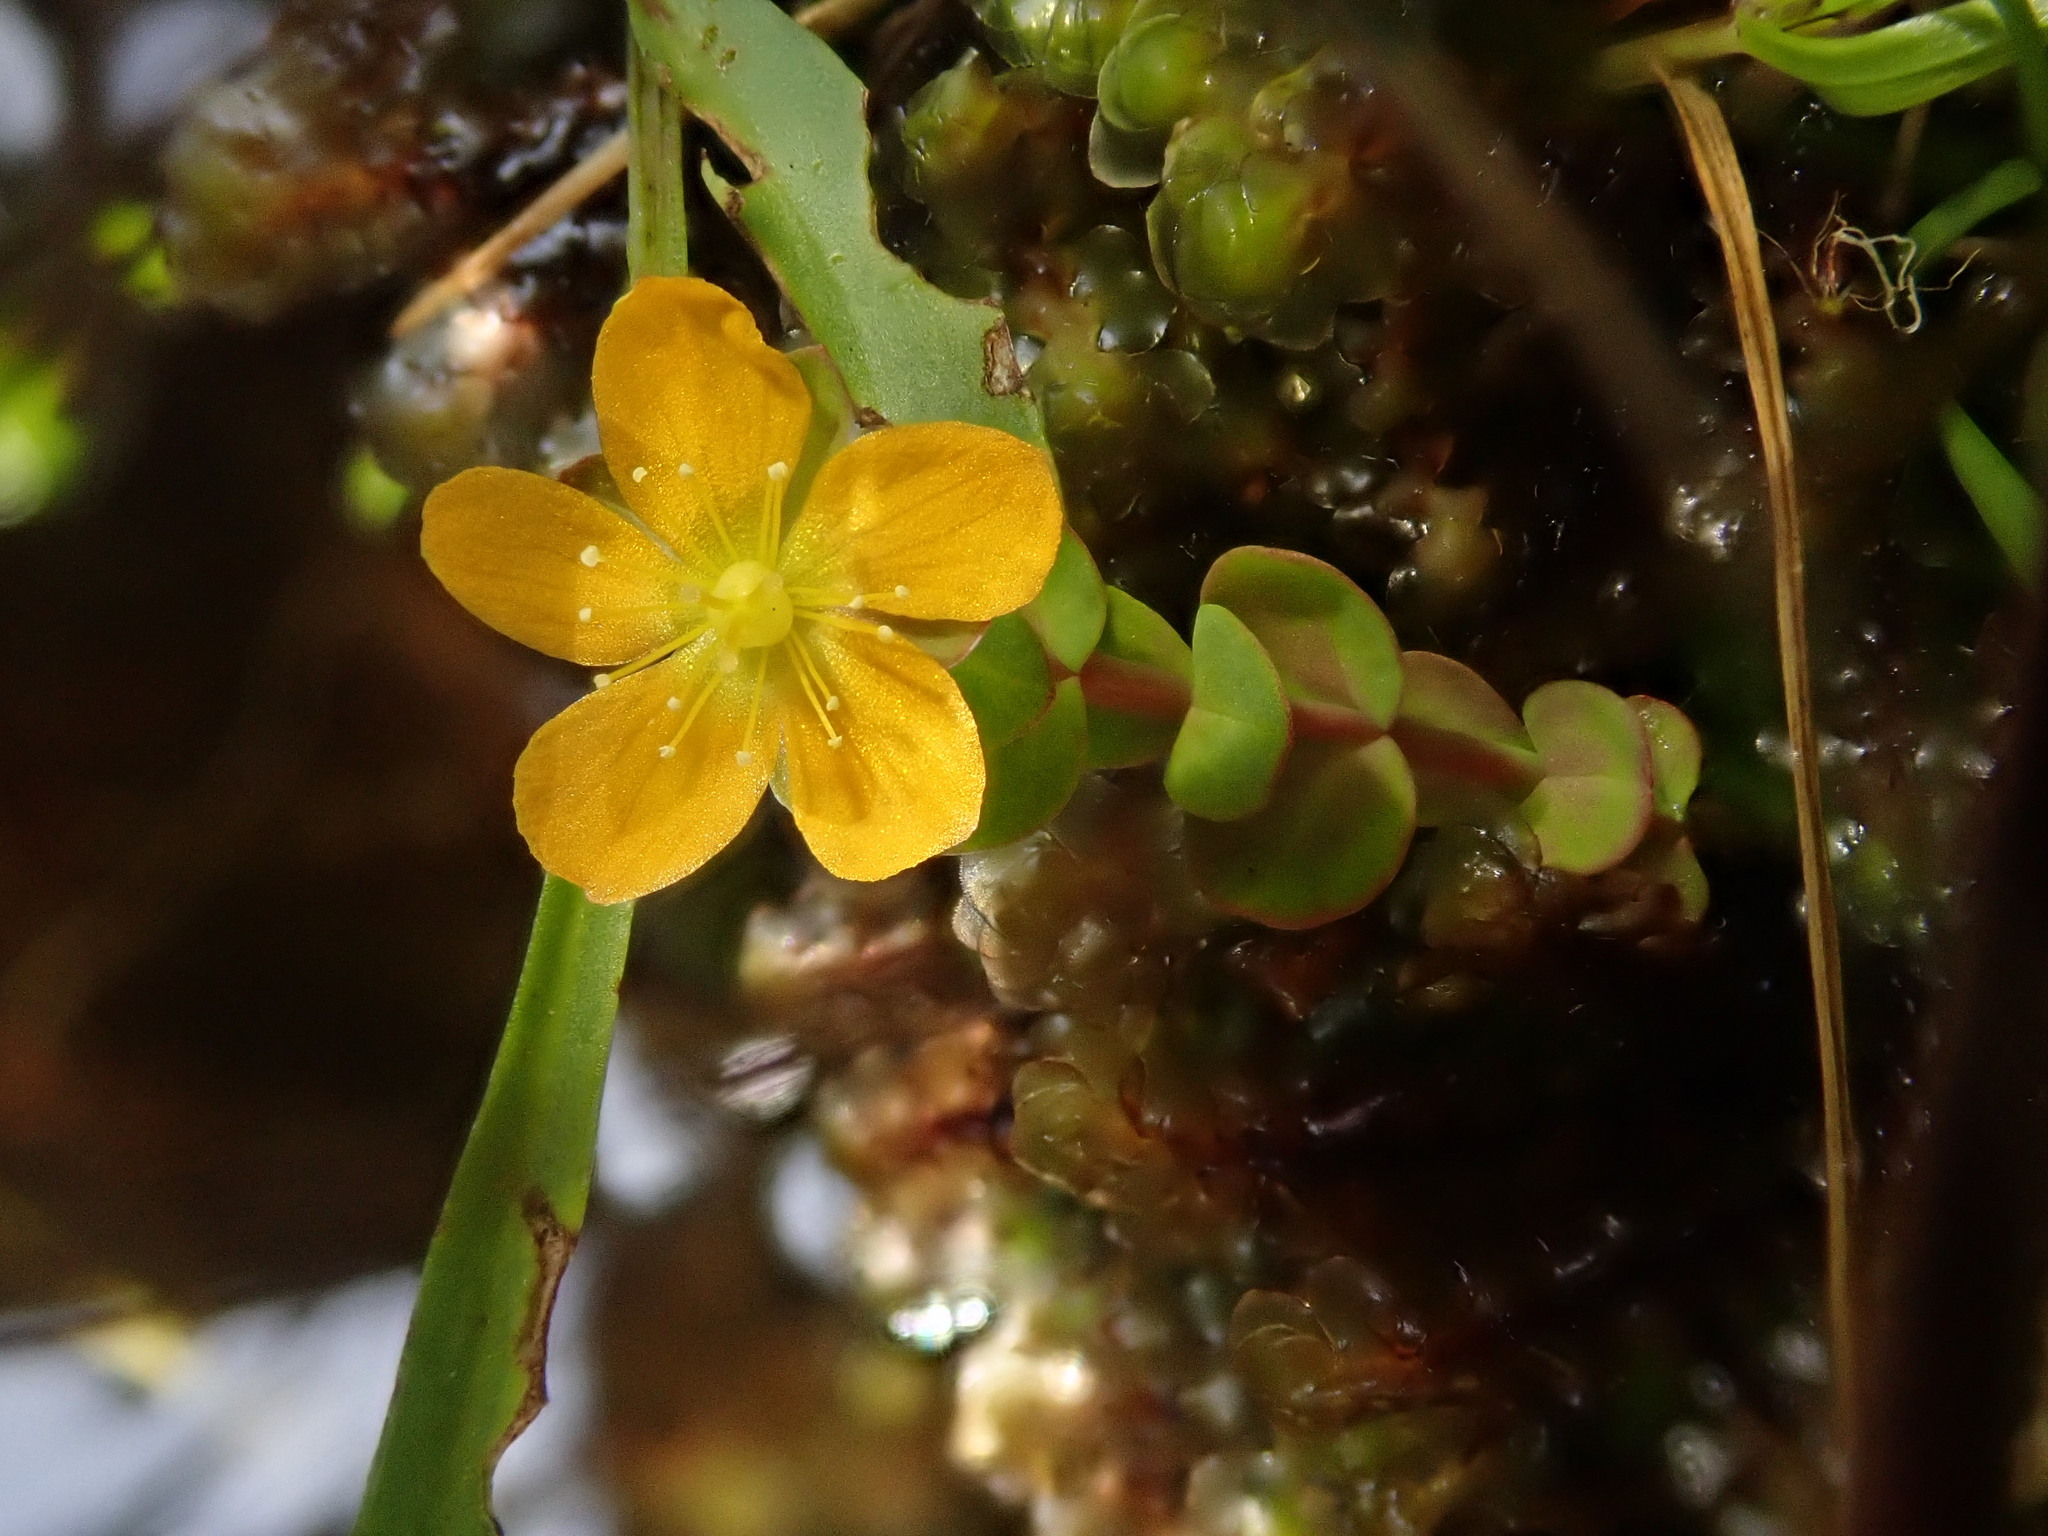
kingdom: Plantae
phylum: Tracheophyta
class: Magnoliopsida
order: Malpighiales
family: Hypericaceae
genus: Hypericum
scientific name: Hypericum anagalloides
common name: Bog st. john's-wort
